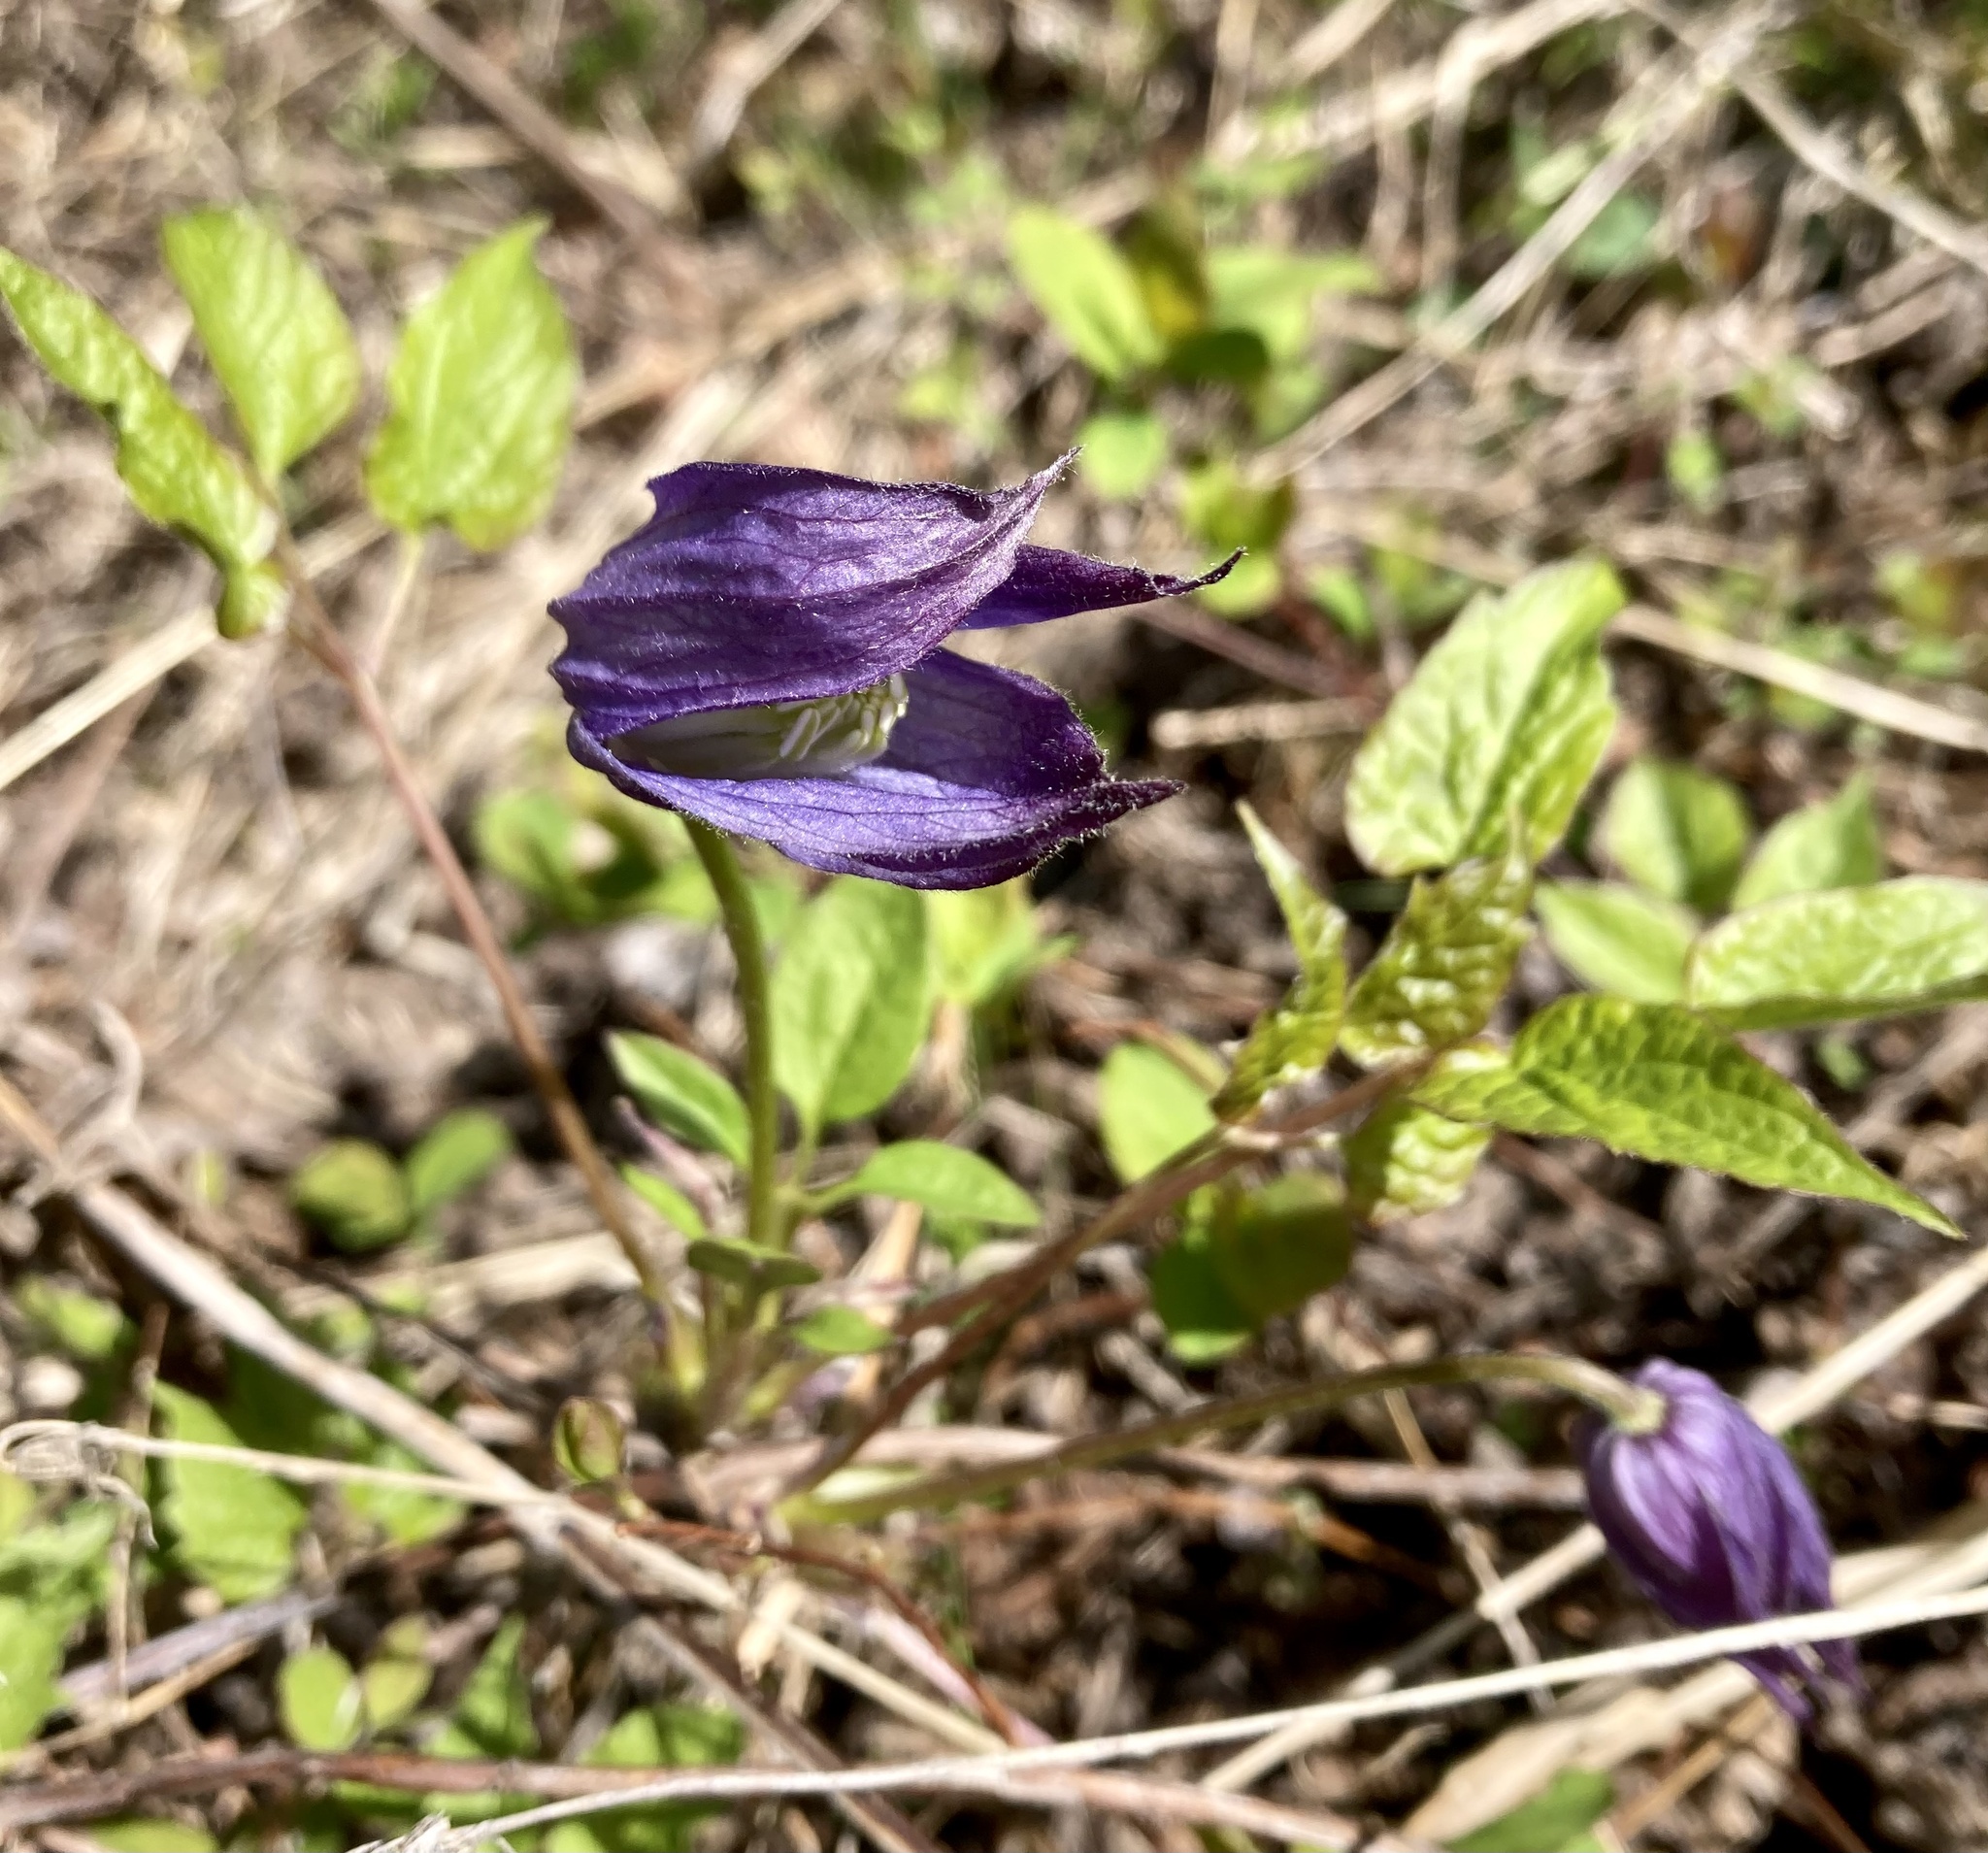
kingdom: Plantae
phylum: Tracheophyta
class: Magnoliopsida
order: Ranunculales
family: Ranunculaceae
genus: Clematis
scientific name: Clematis occidentalis
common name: Purple clematis
